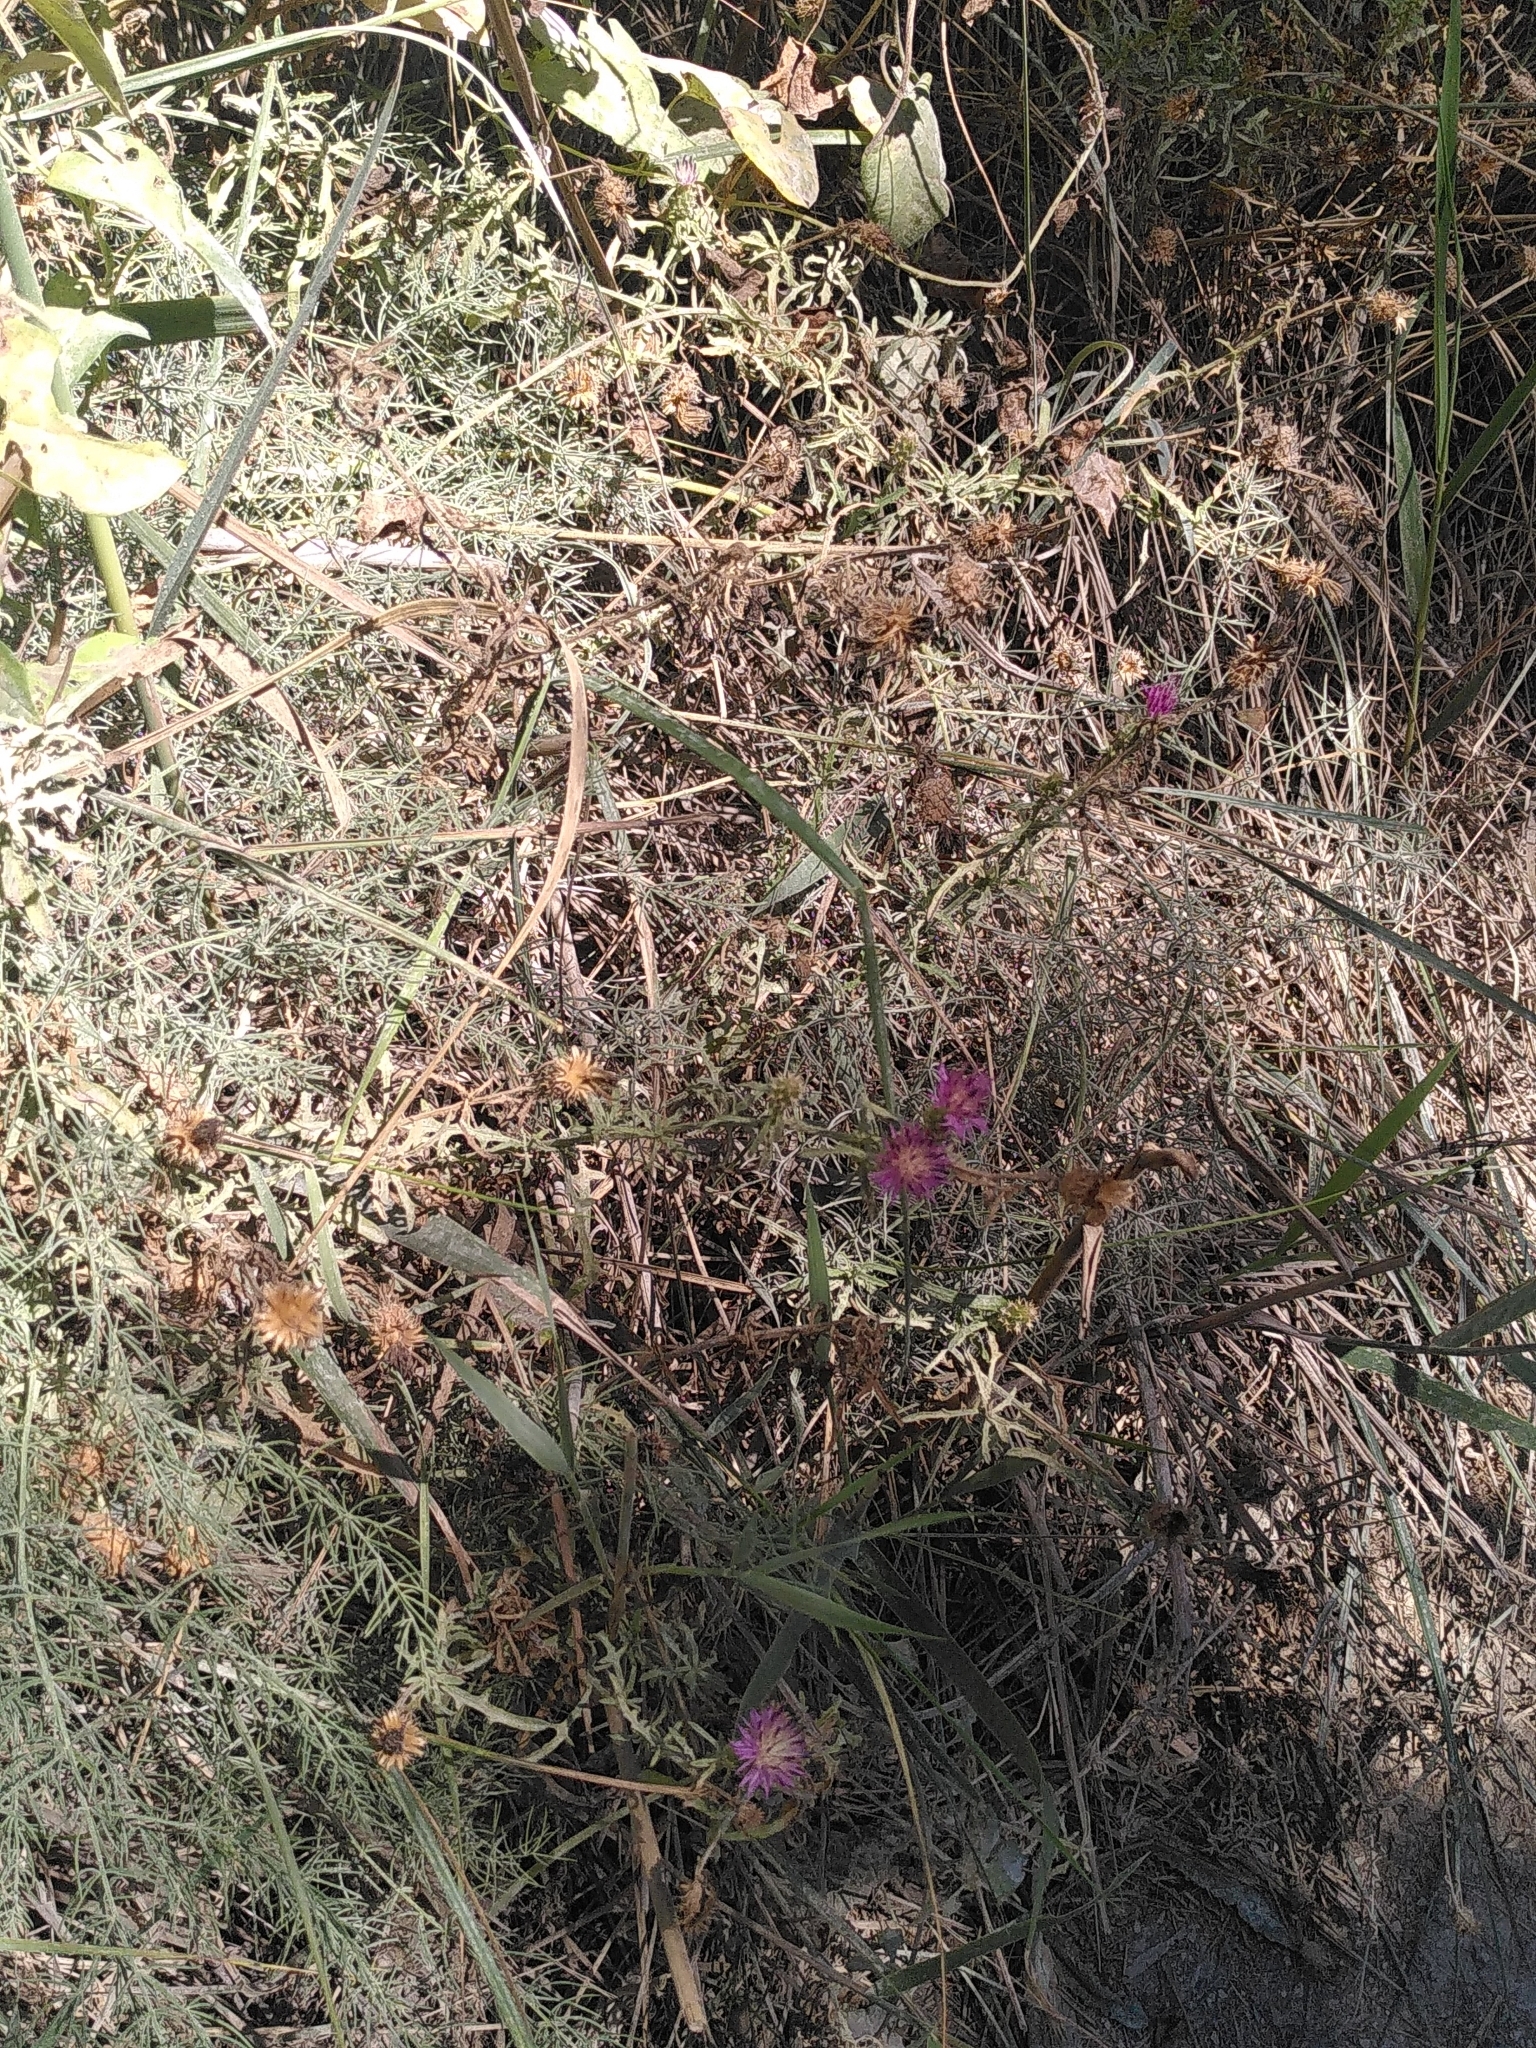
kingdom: Plantae
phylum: Tracheophyta
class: Magnoliopsida
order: Asterales
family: Asteraceae
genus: Centaurea
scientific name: Centaurea aspera
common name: Rough star-thistle
